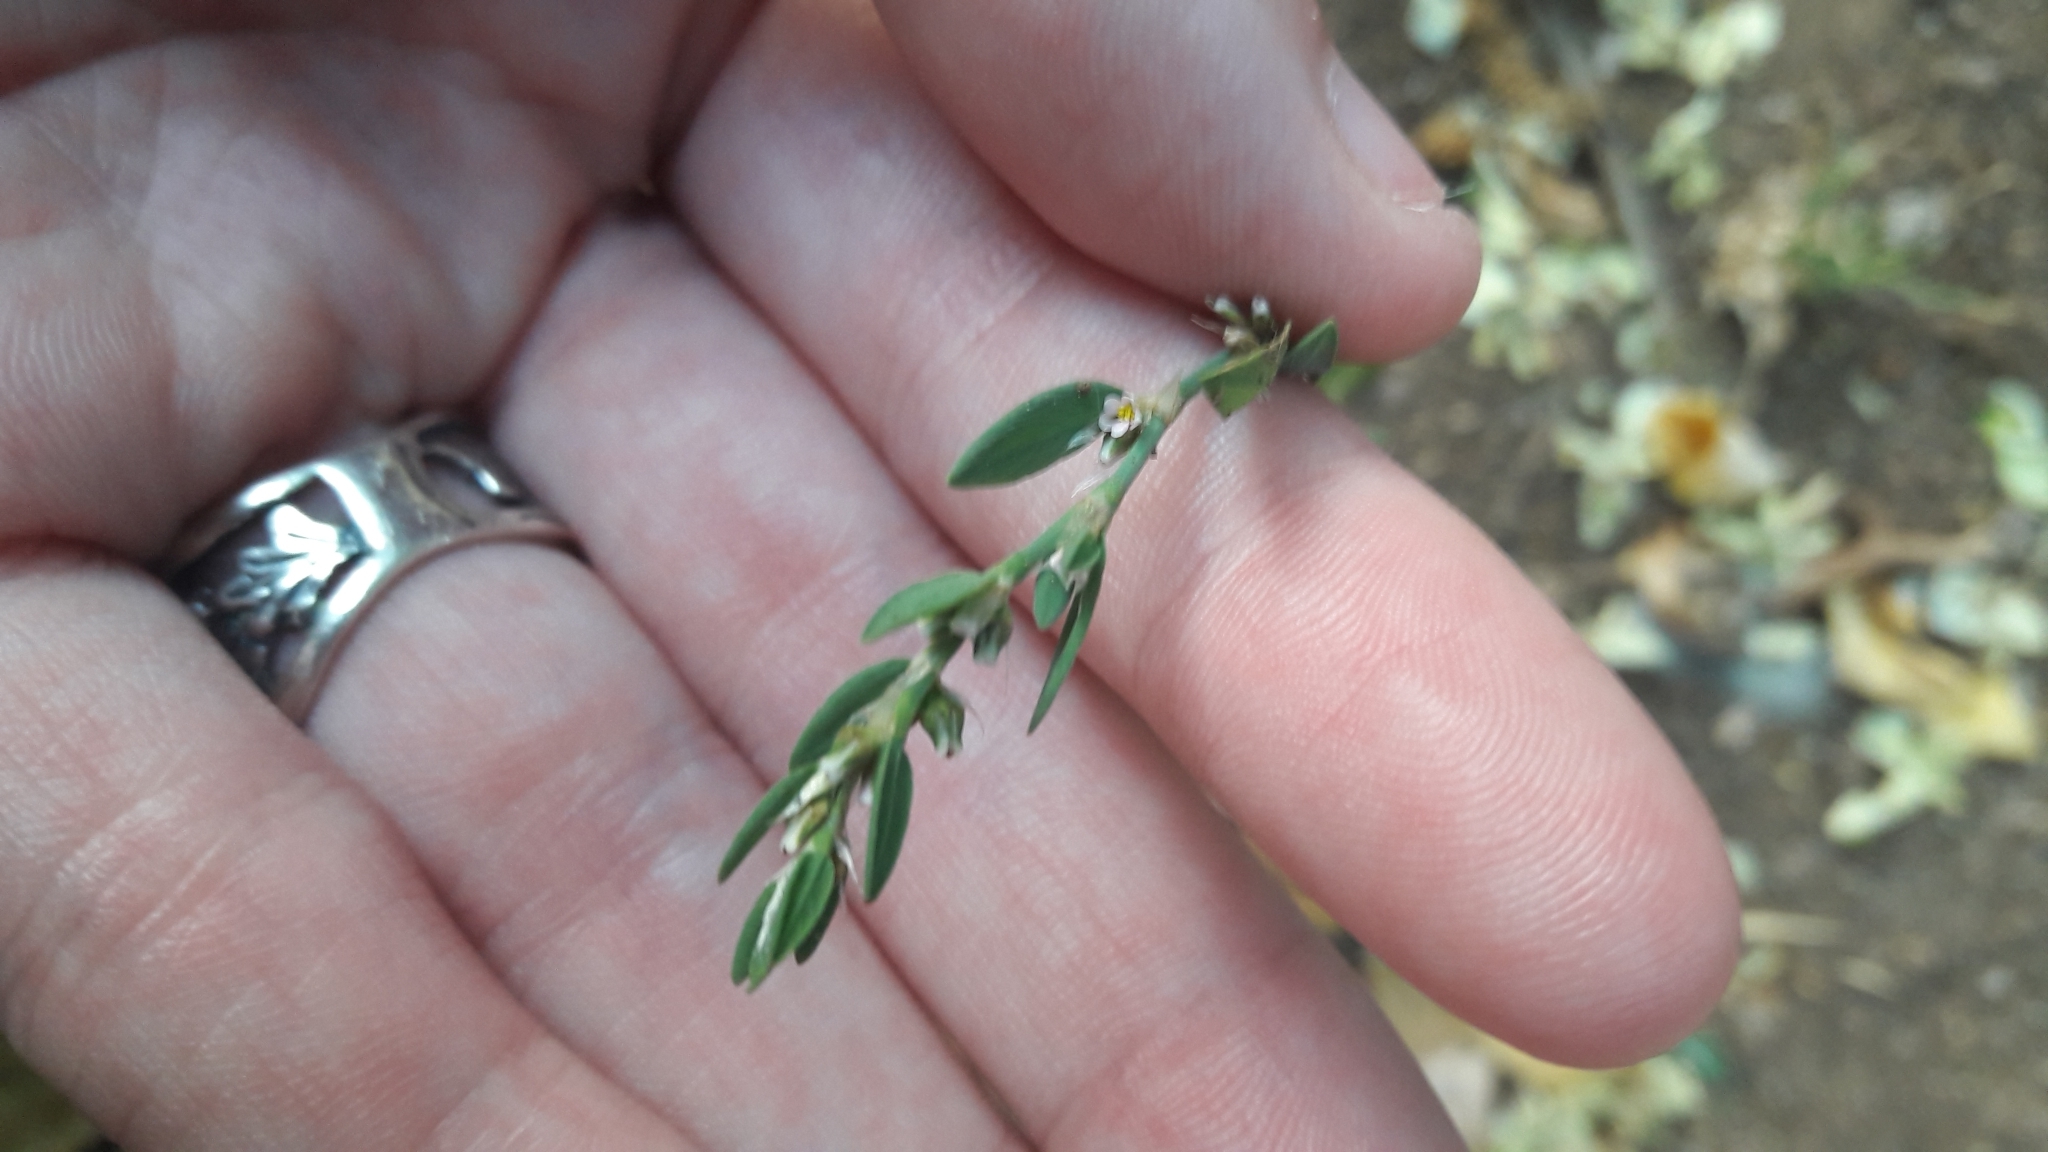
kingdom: Plantae
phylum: Tracheophyta
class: Magnoliopsida
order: Caryophyllales
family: Polygonaceae
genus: Polygonum
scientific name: Polygonum aviculare
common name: Prostrate knotweed
